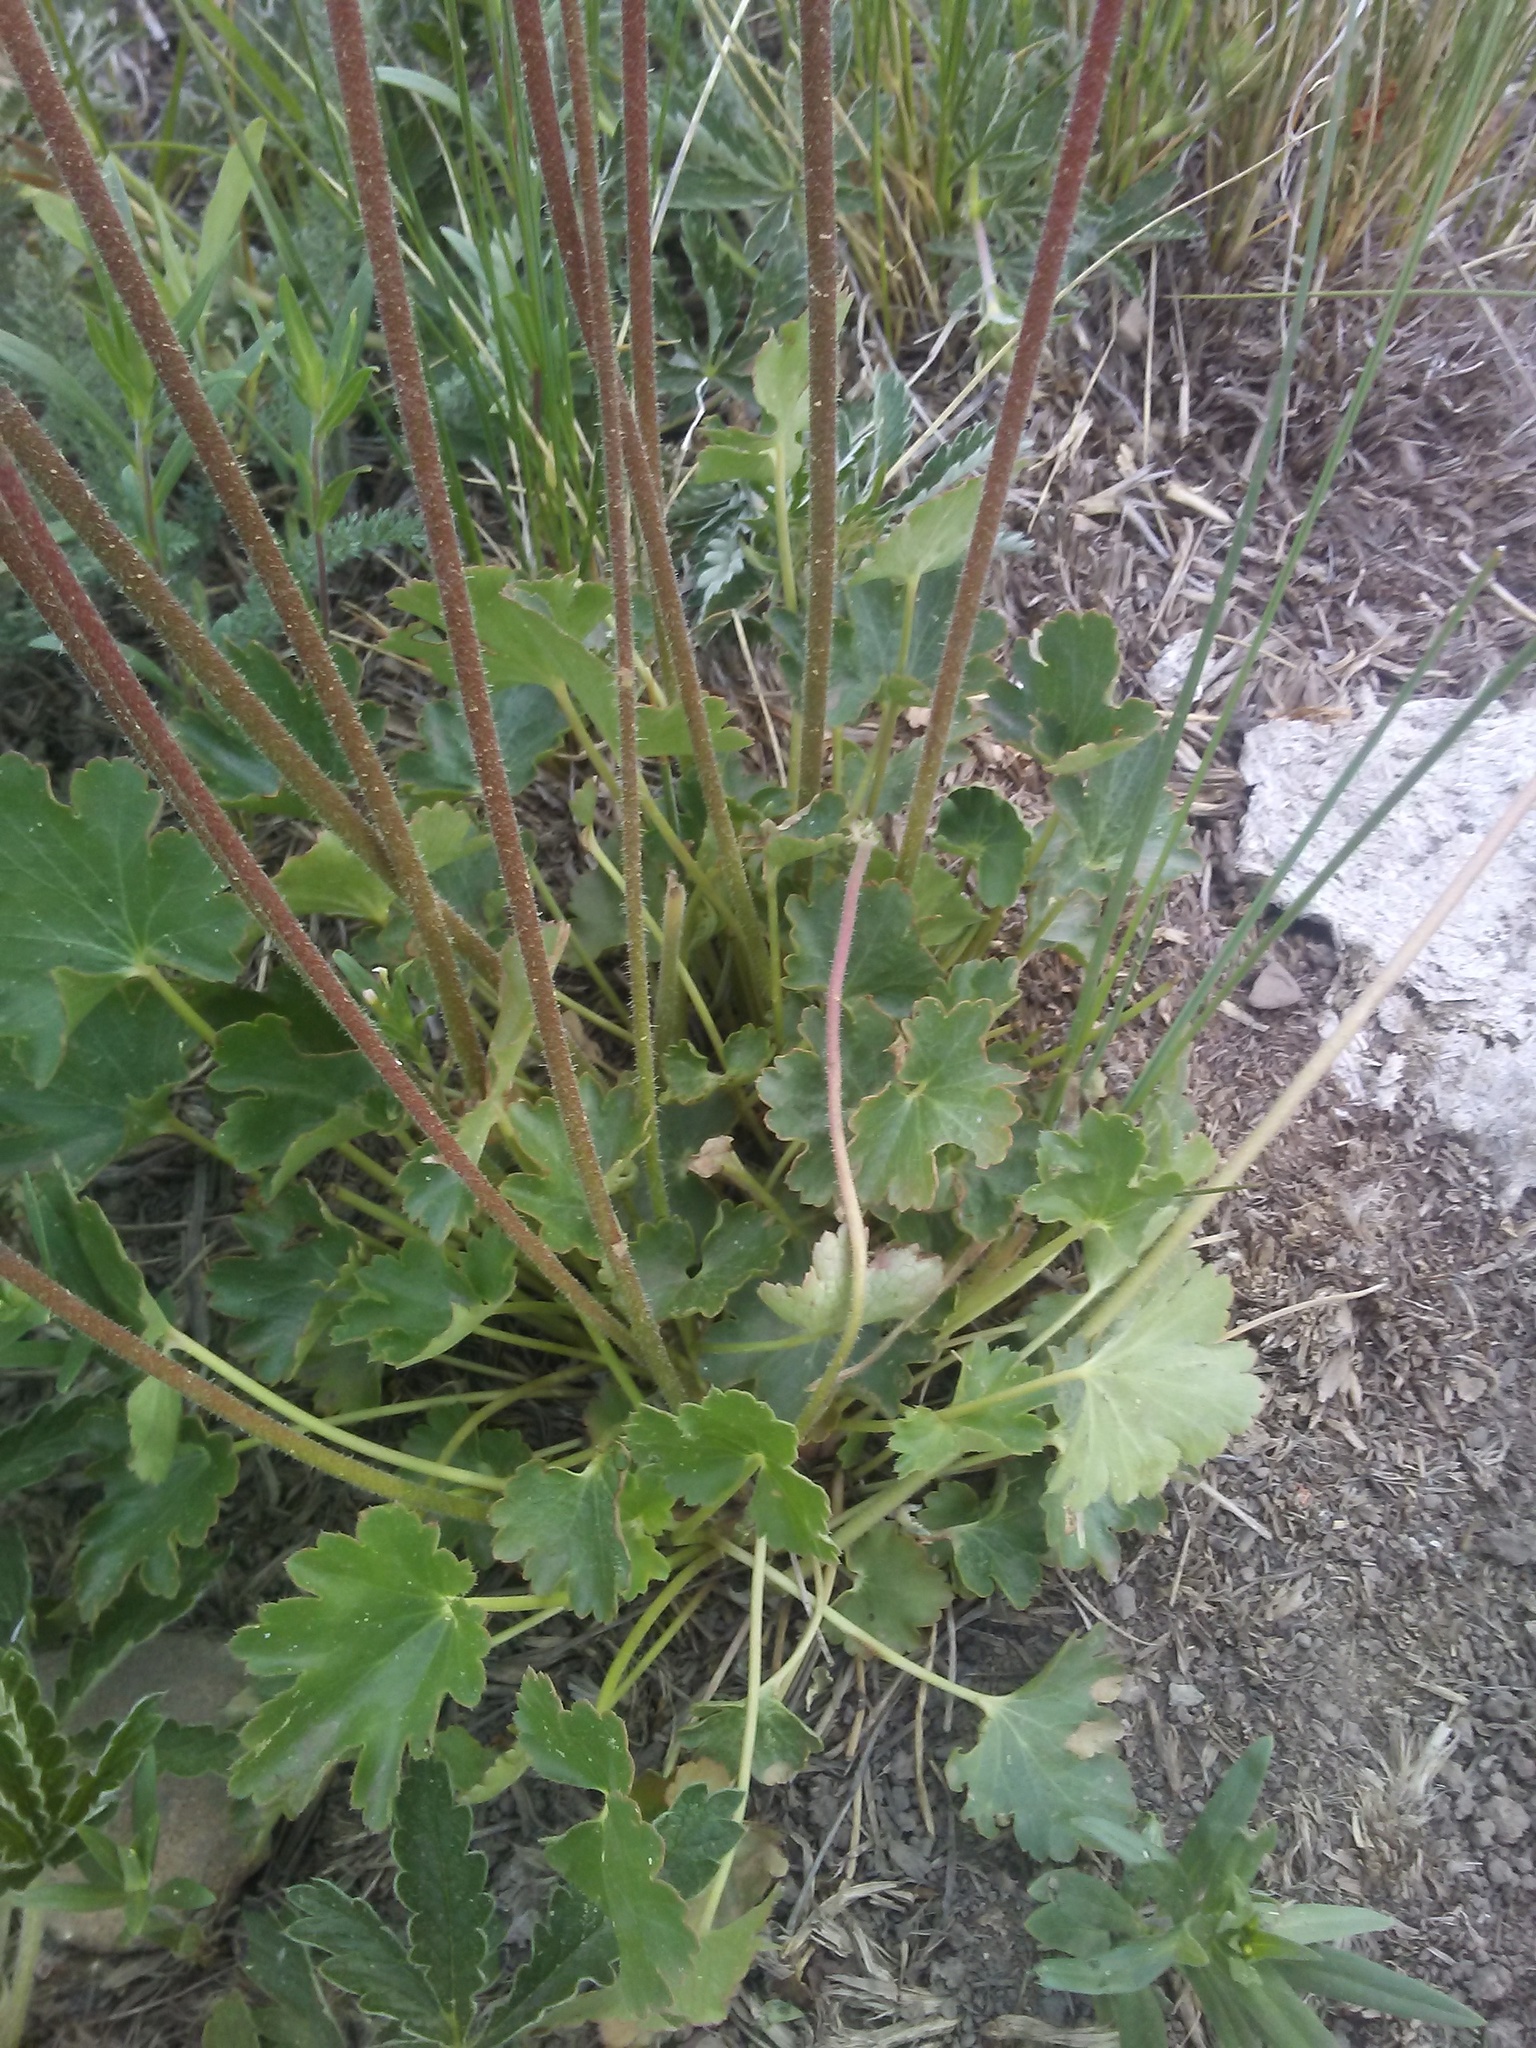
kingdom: Plantae
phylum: Tracheophyta
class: Magnoliopsida
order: Saxifragales
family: Saxifragaceae
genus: Heuchera
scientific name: Heuchera parvifolia
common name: Common alumroot
